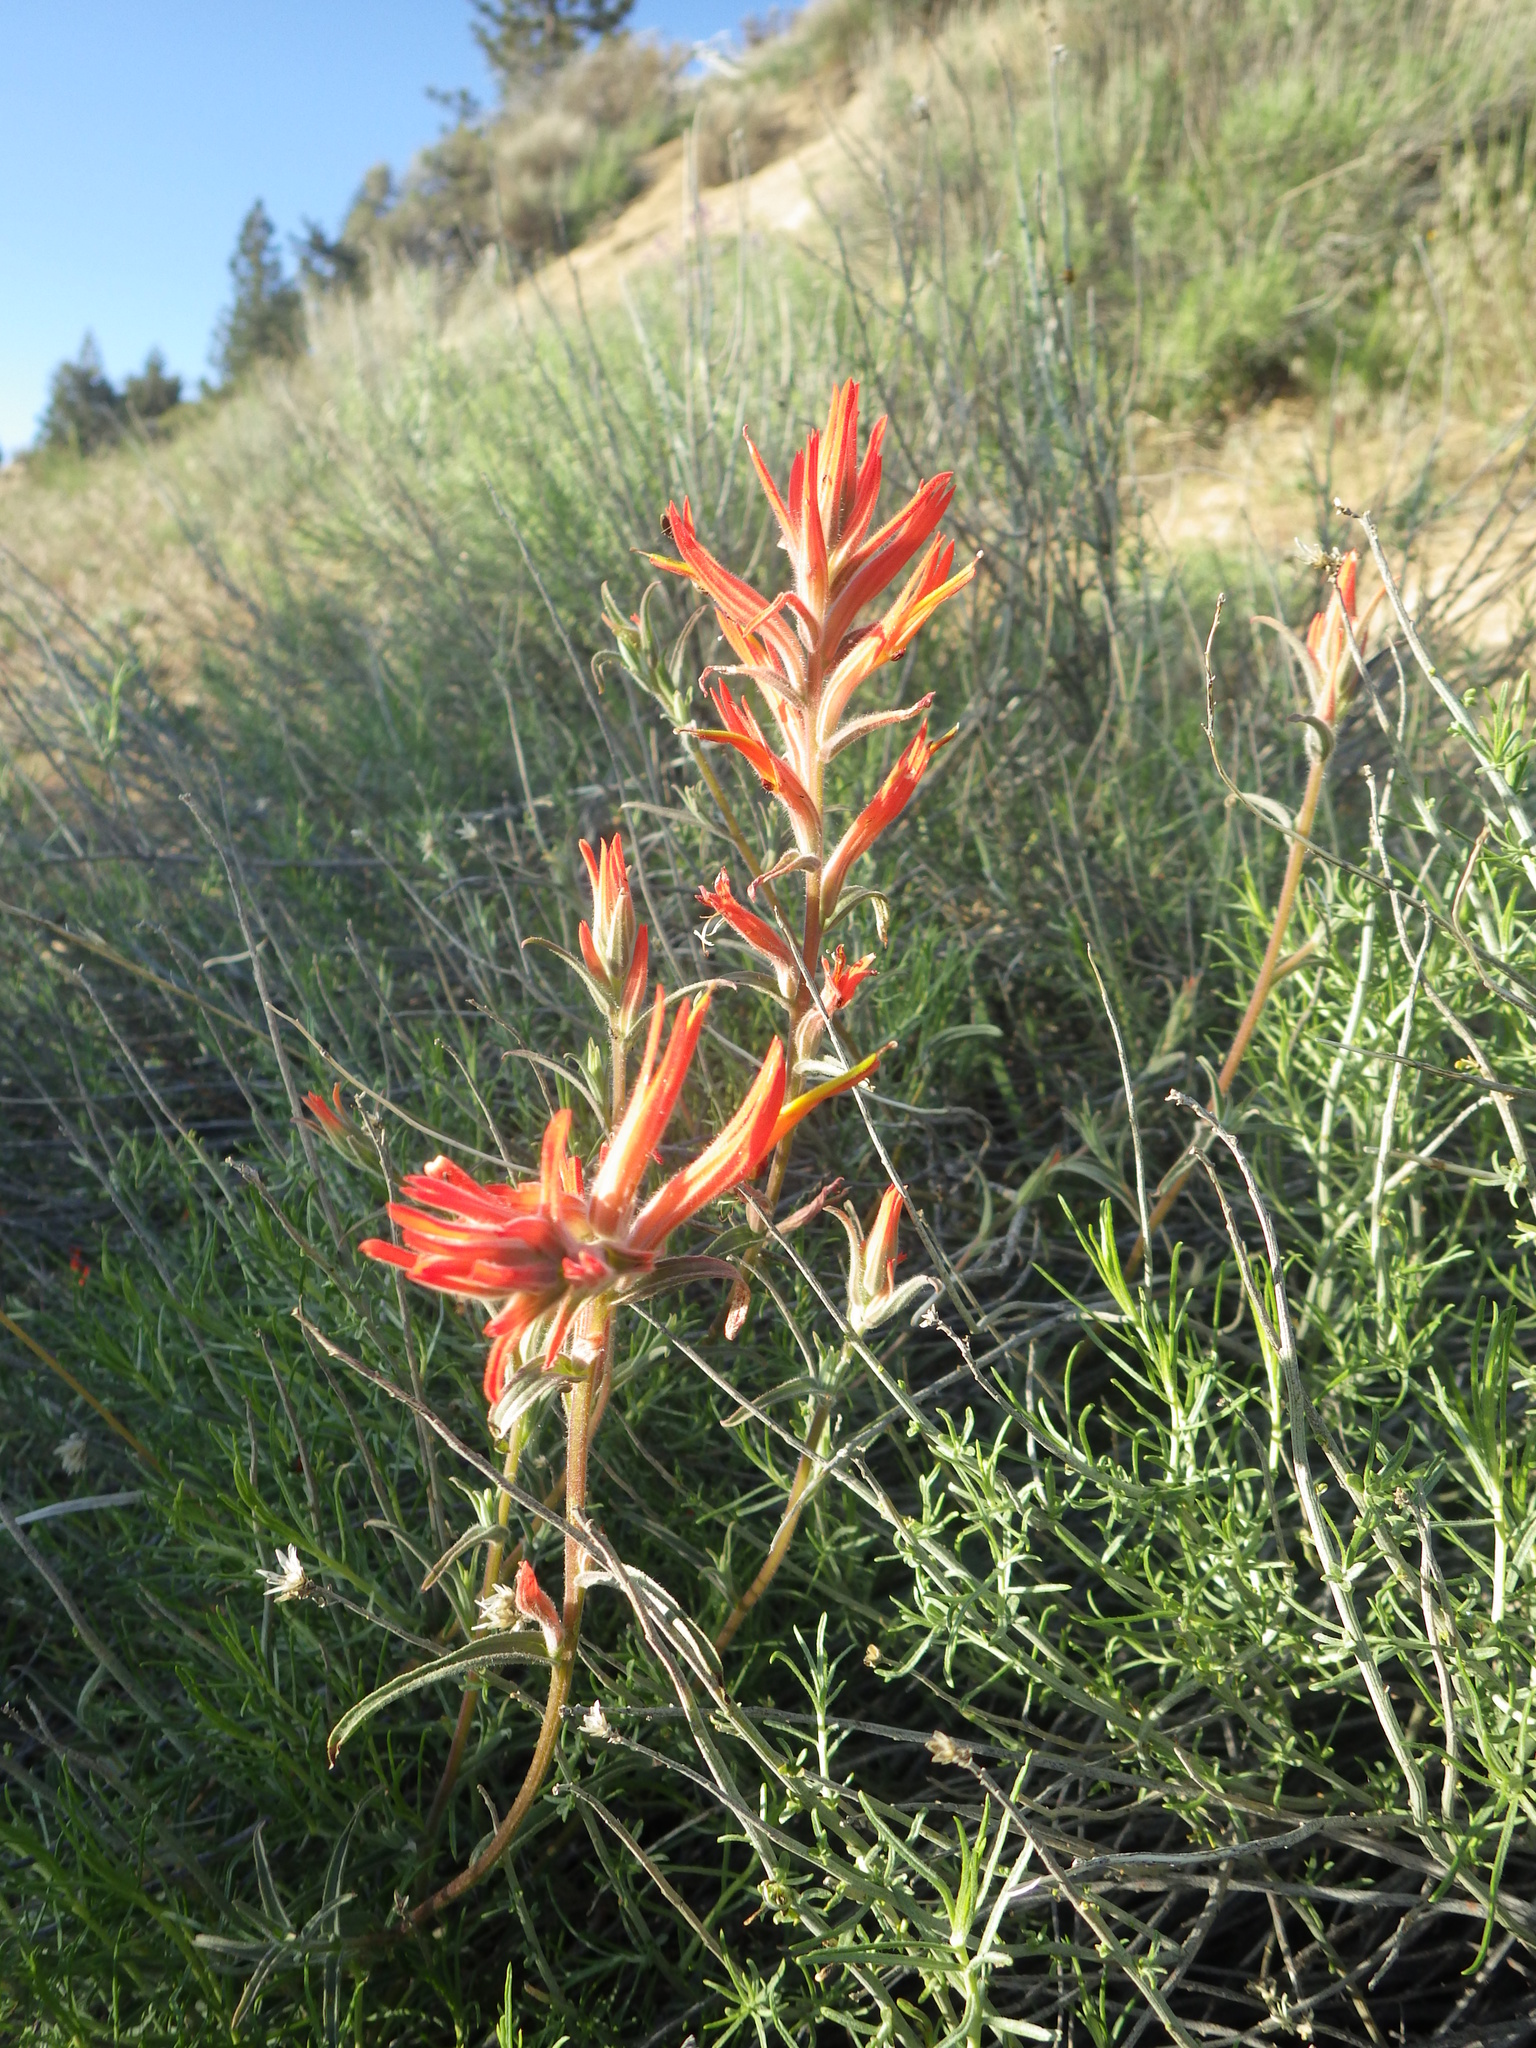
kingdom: Plantae
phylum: Tracheophyta
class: Magnoliopsida
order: Lamiales
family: Orobanchaceae
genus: Castilleja
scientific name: Castilleja subinclusa
